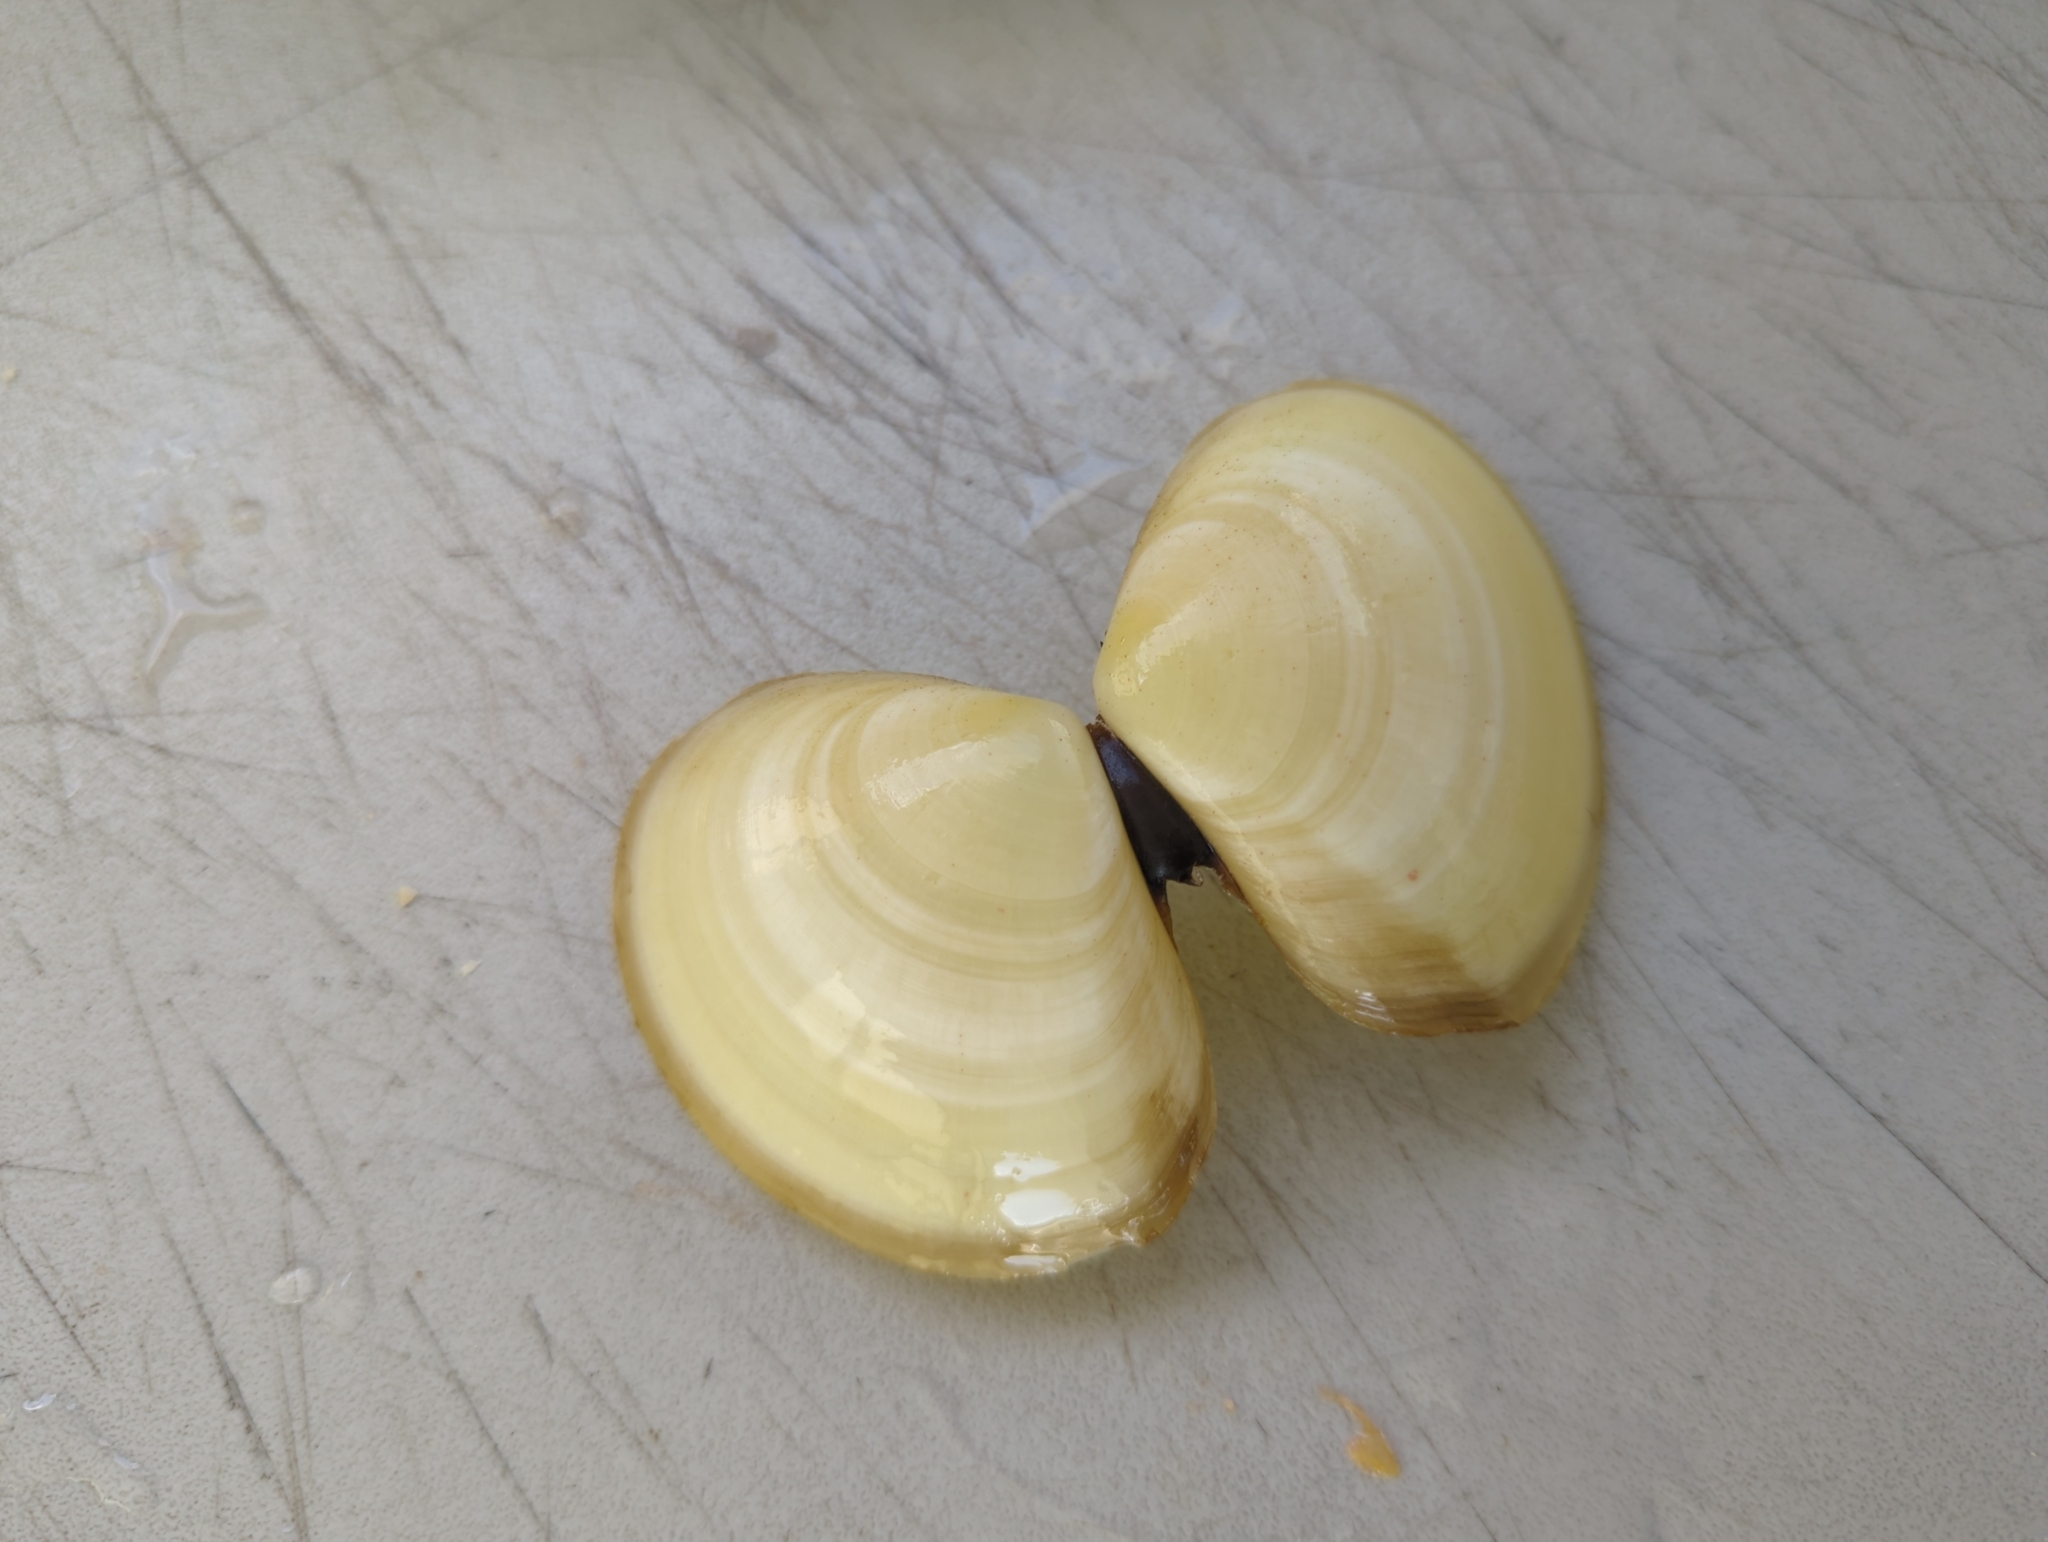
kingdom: Animalia
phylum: Mollusca
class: Bivalvia
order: Cardiida
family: Tellinidae
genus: Johnsonella
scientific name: Johnsonella fausta
